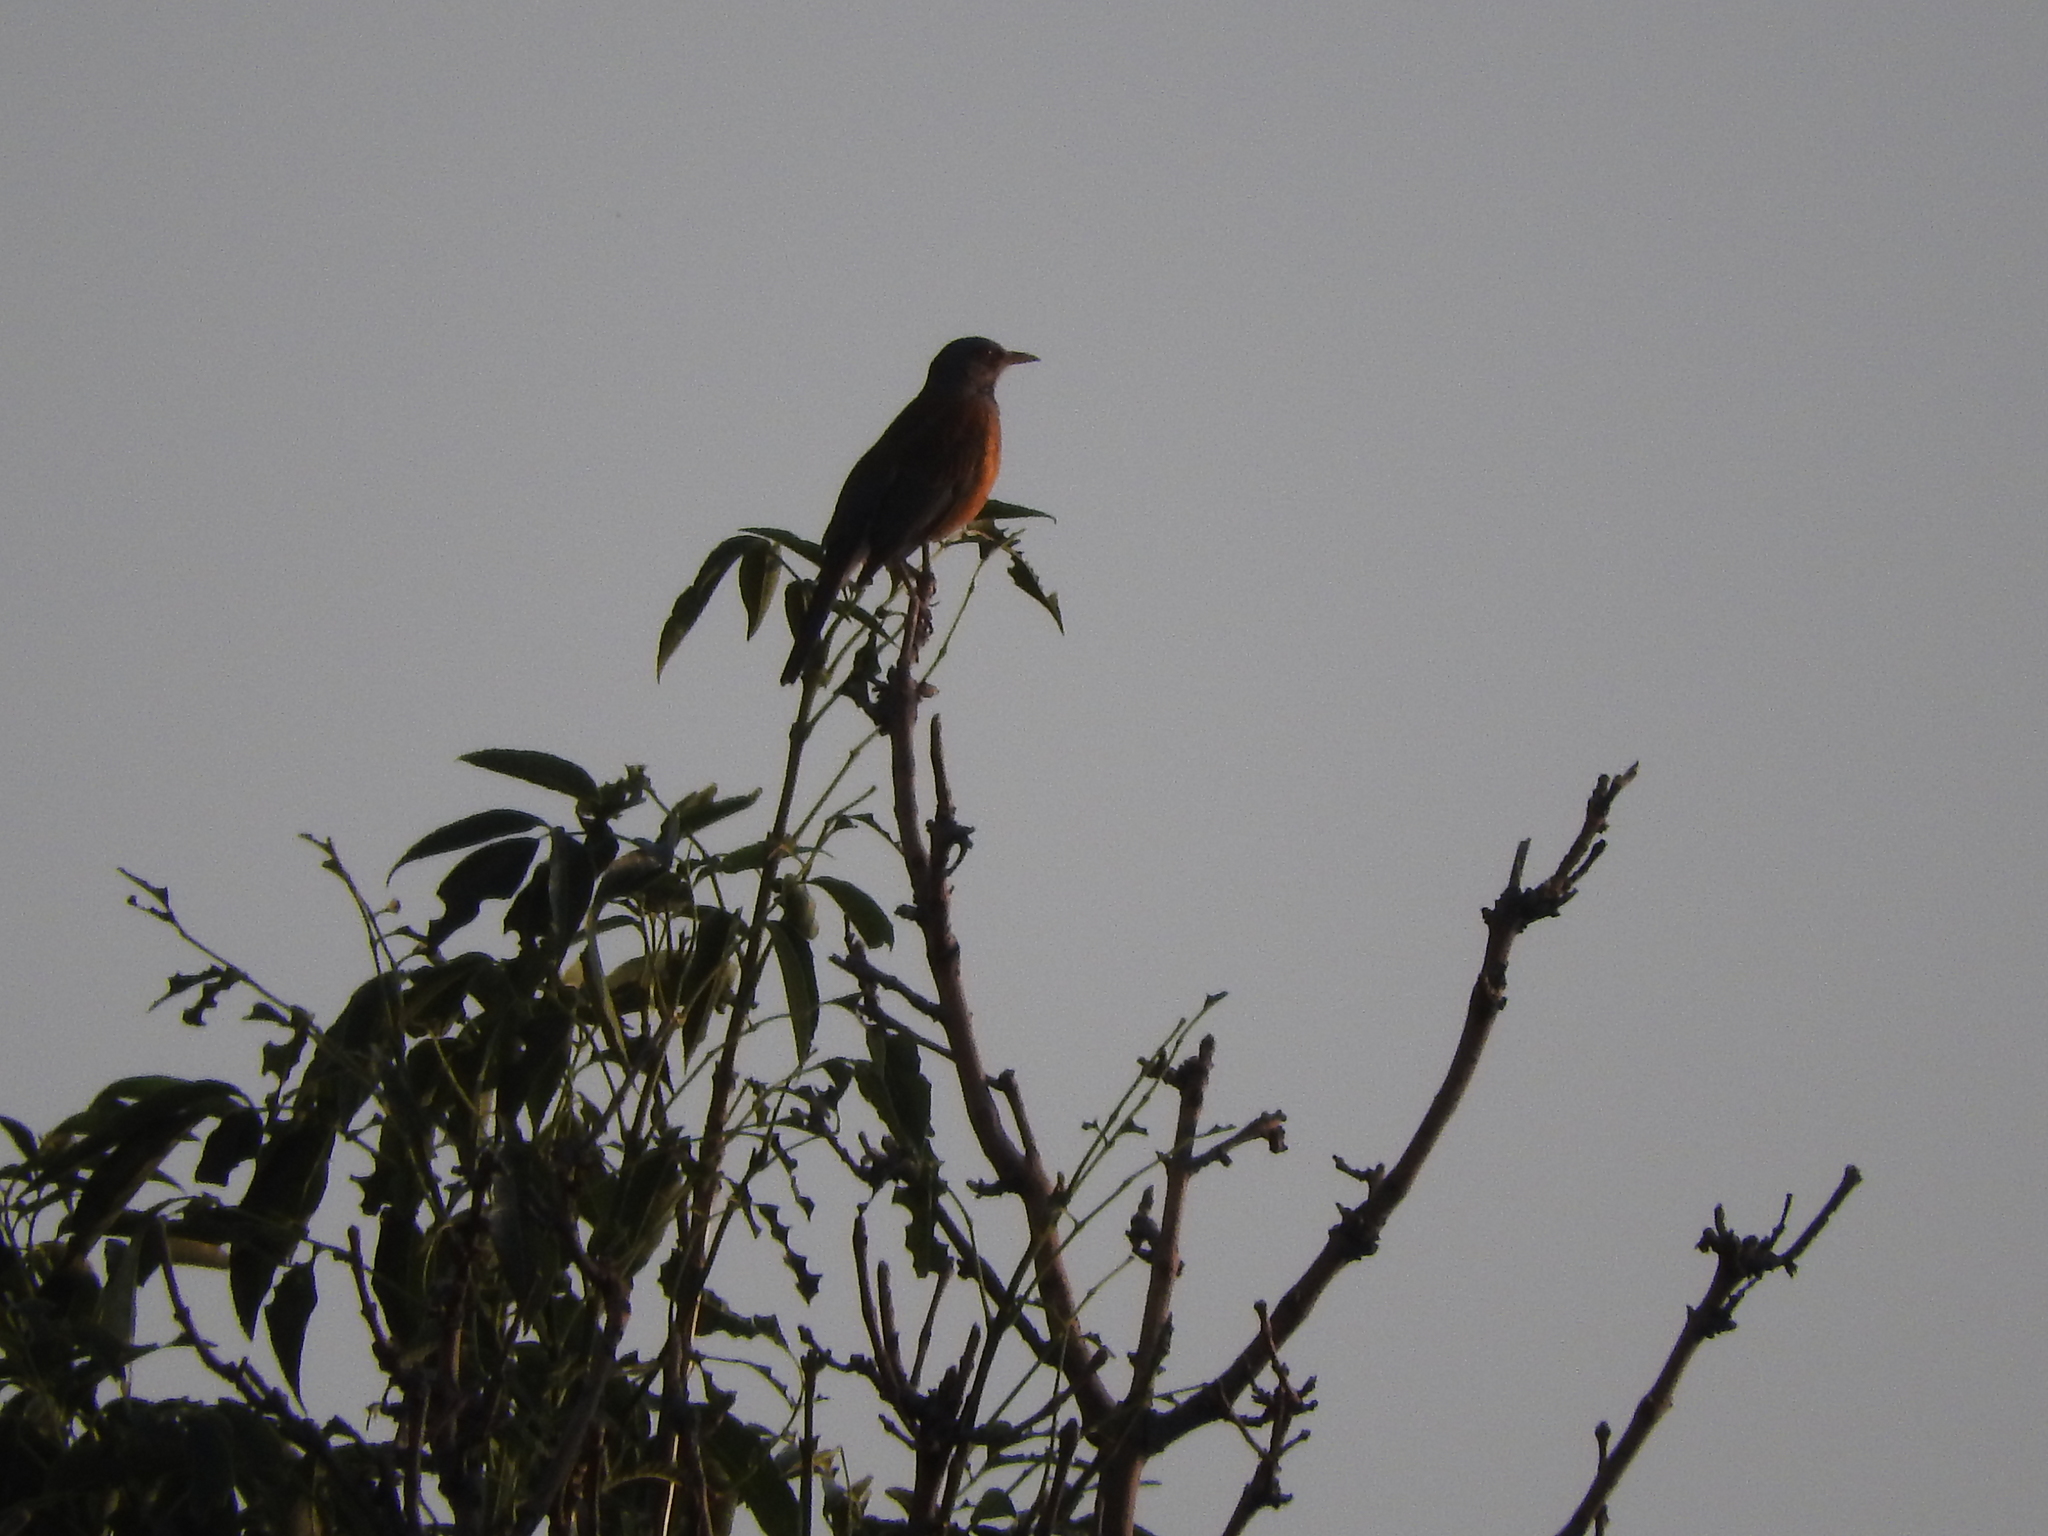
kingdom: Animalia
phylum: Chordata
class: Aves
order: Passeriformes
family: Turdidae
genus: Turdus
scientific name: Turdus rufopalliatus
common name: Rufous-backed robin
